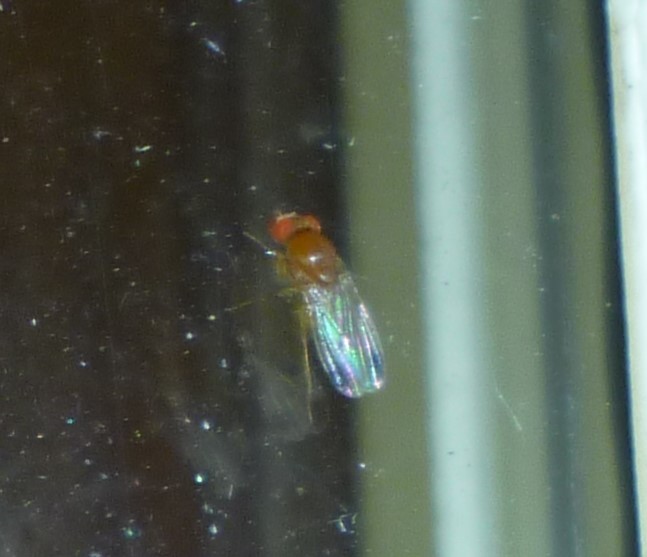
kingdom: Animalia
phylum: Arthropoda
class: Insecta
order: Diptera
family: Drosophilidae
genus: Drosophila
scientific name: Drosophila suzukii
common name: Spotted-wing drosophila
